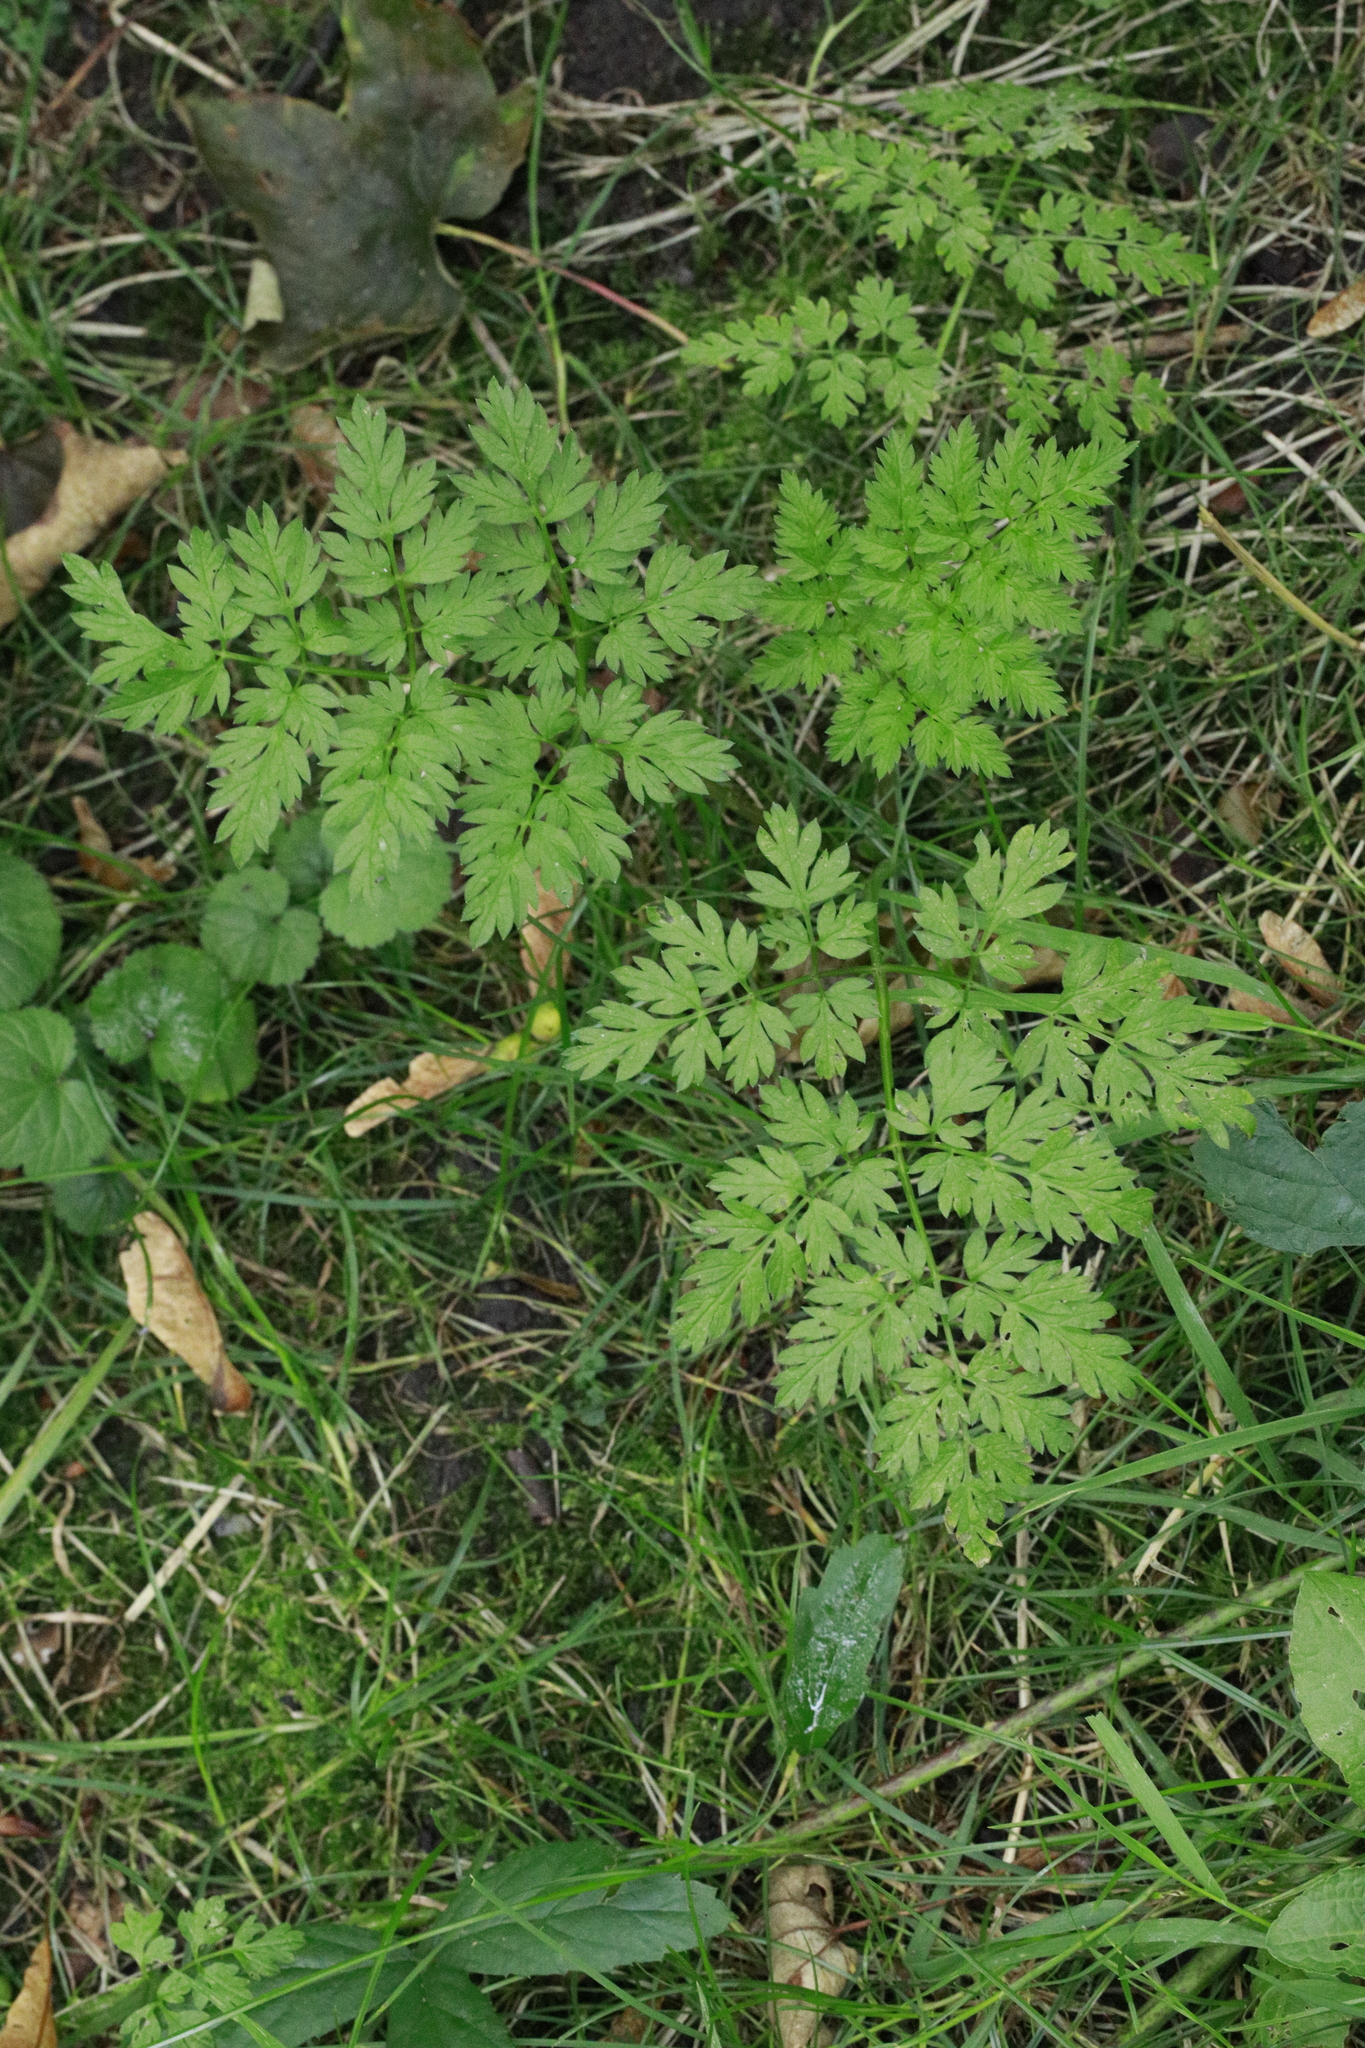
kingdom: Plantae
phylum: Tracheophyta
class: Magnoliopsida
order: Apiales
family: Apiaceae
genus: Anthriscus
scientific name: Anthriscus sylvestris
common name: Cow parsley
